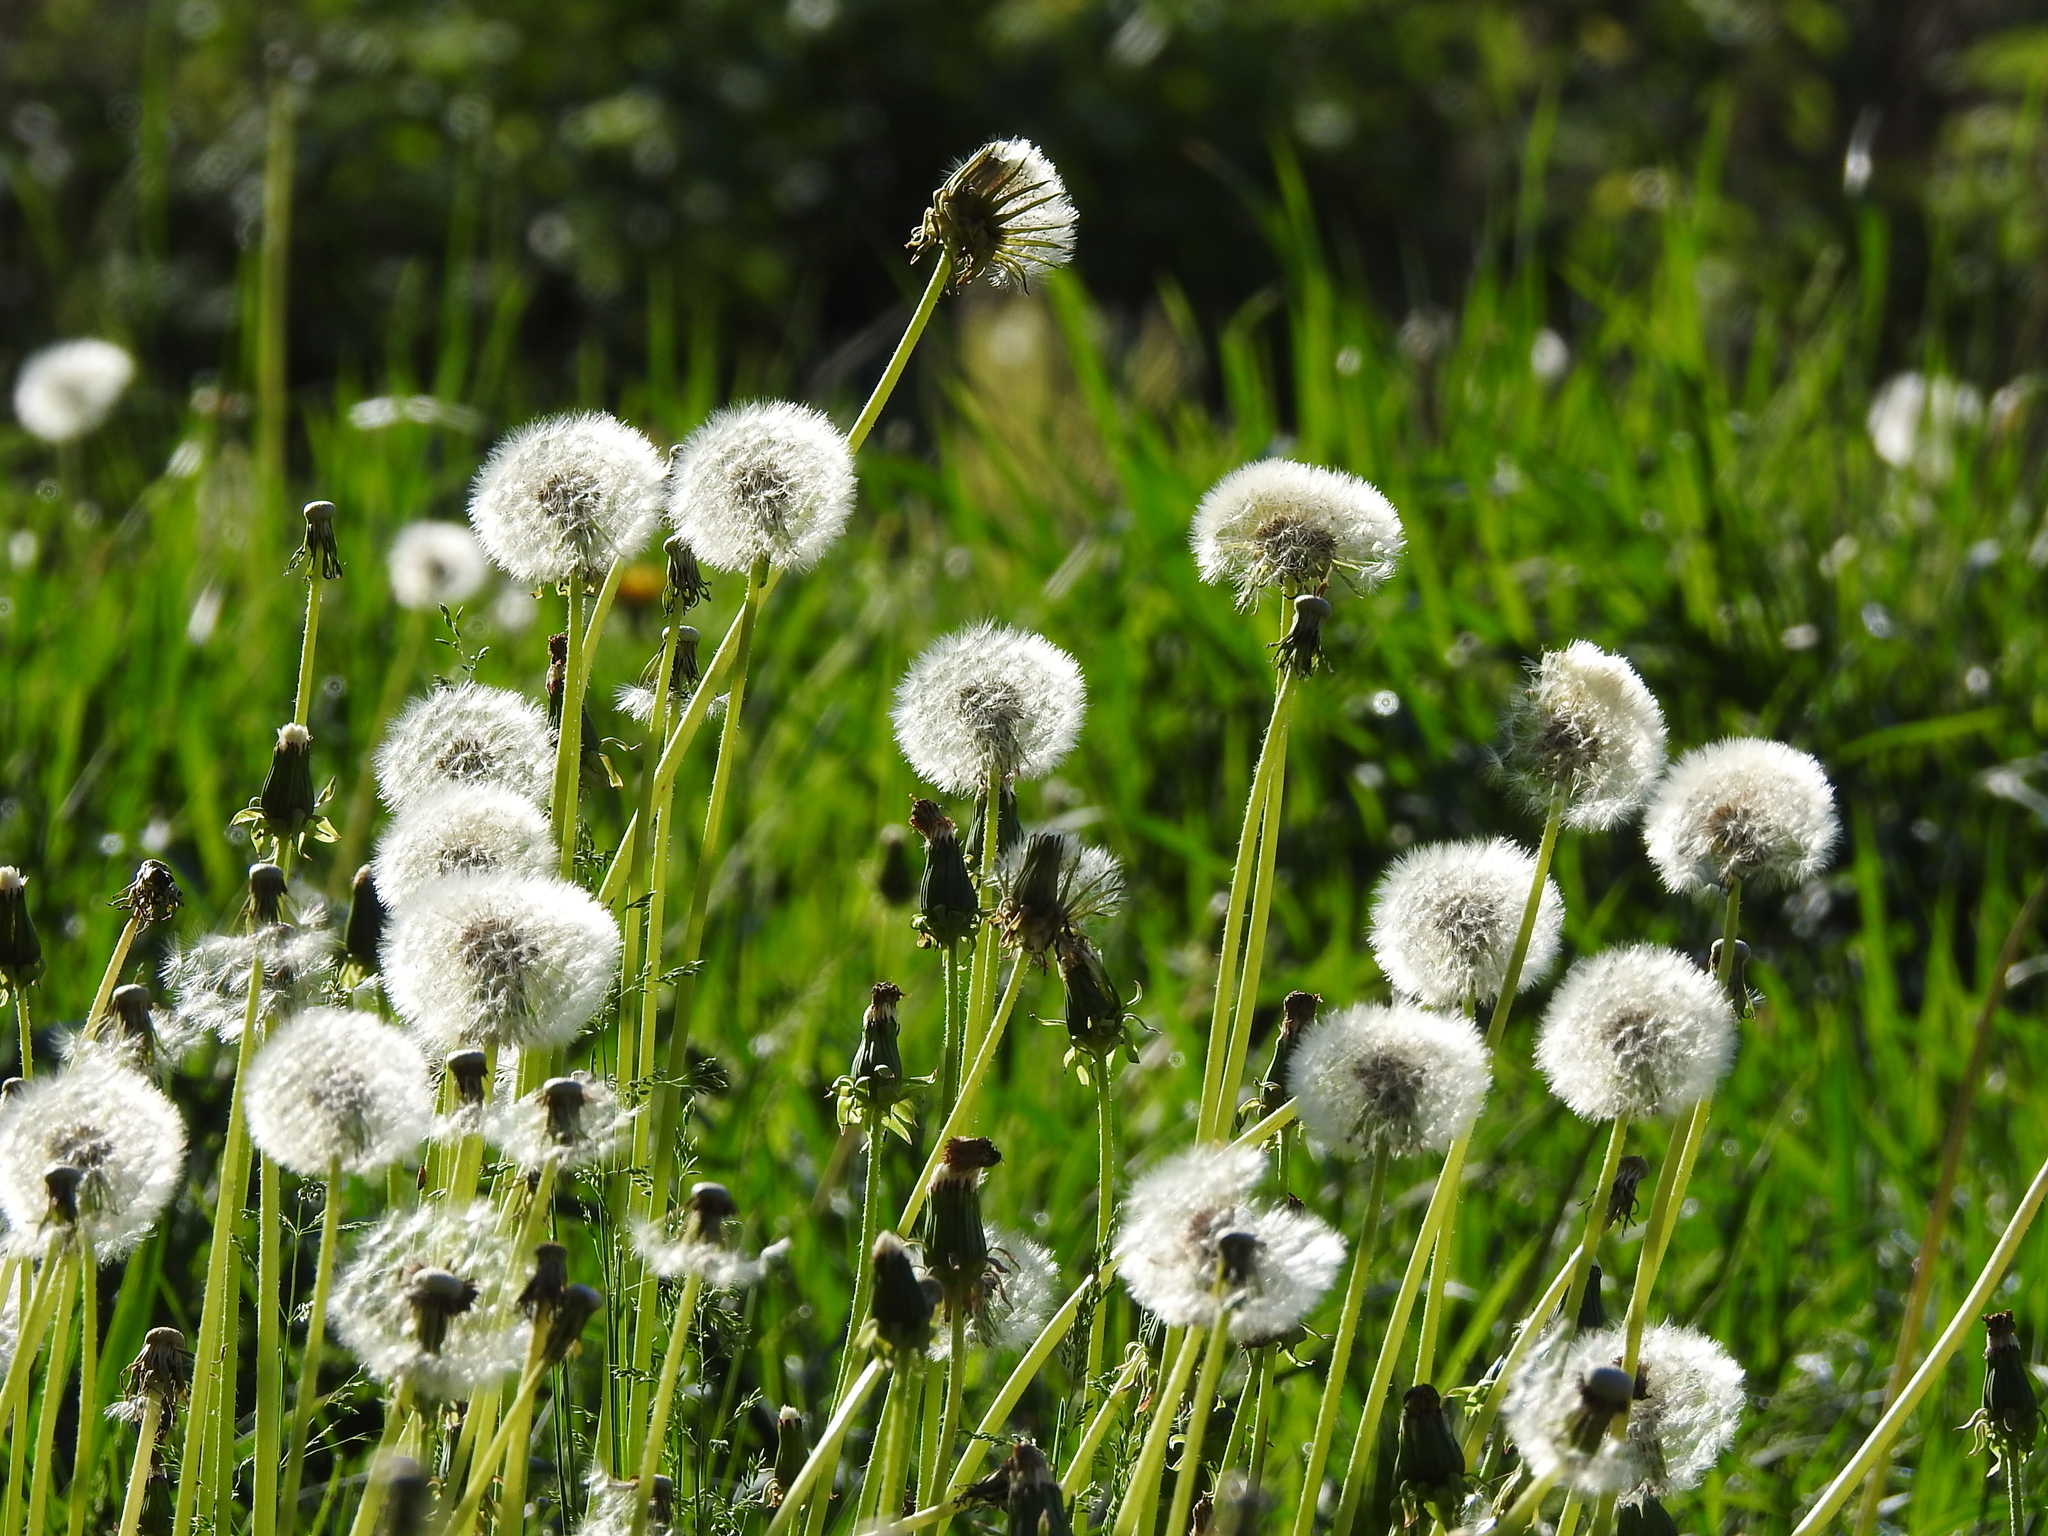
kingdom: Plantae
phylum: Tracheophyta
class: Magnoliopsida
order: Asterales
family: Asteraceae
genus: Taraxacum
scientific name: Taraxacum officinale
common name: Common dandelion
